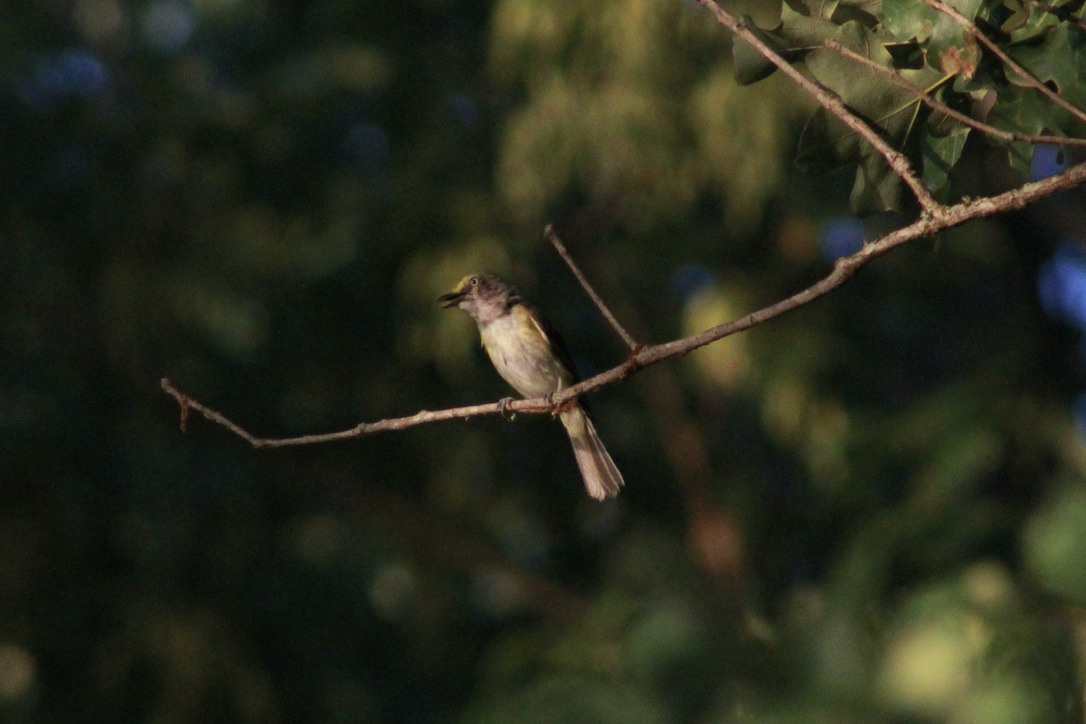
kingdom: Animalia
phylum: Chordata
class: Aves
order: Passeriformes
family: Vireonidae
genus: Vireo
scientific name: Vireo griseus
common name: White-eyed vireo
